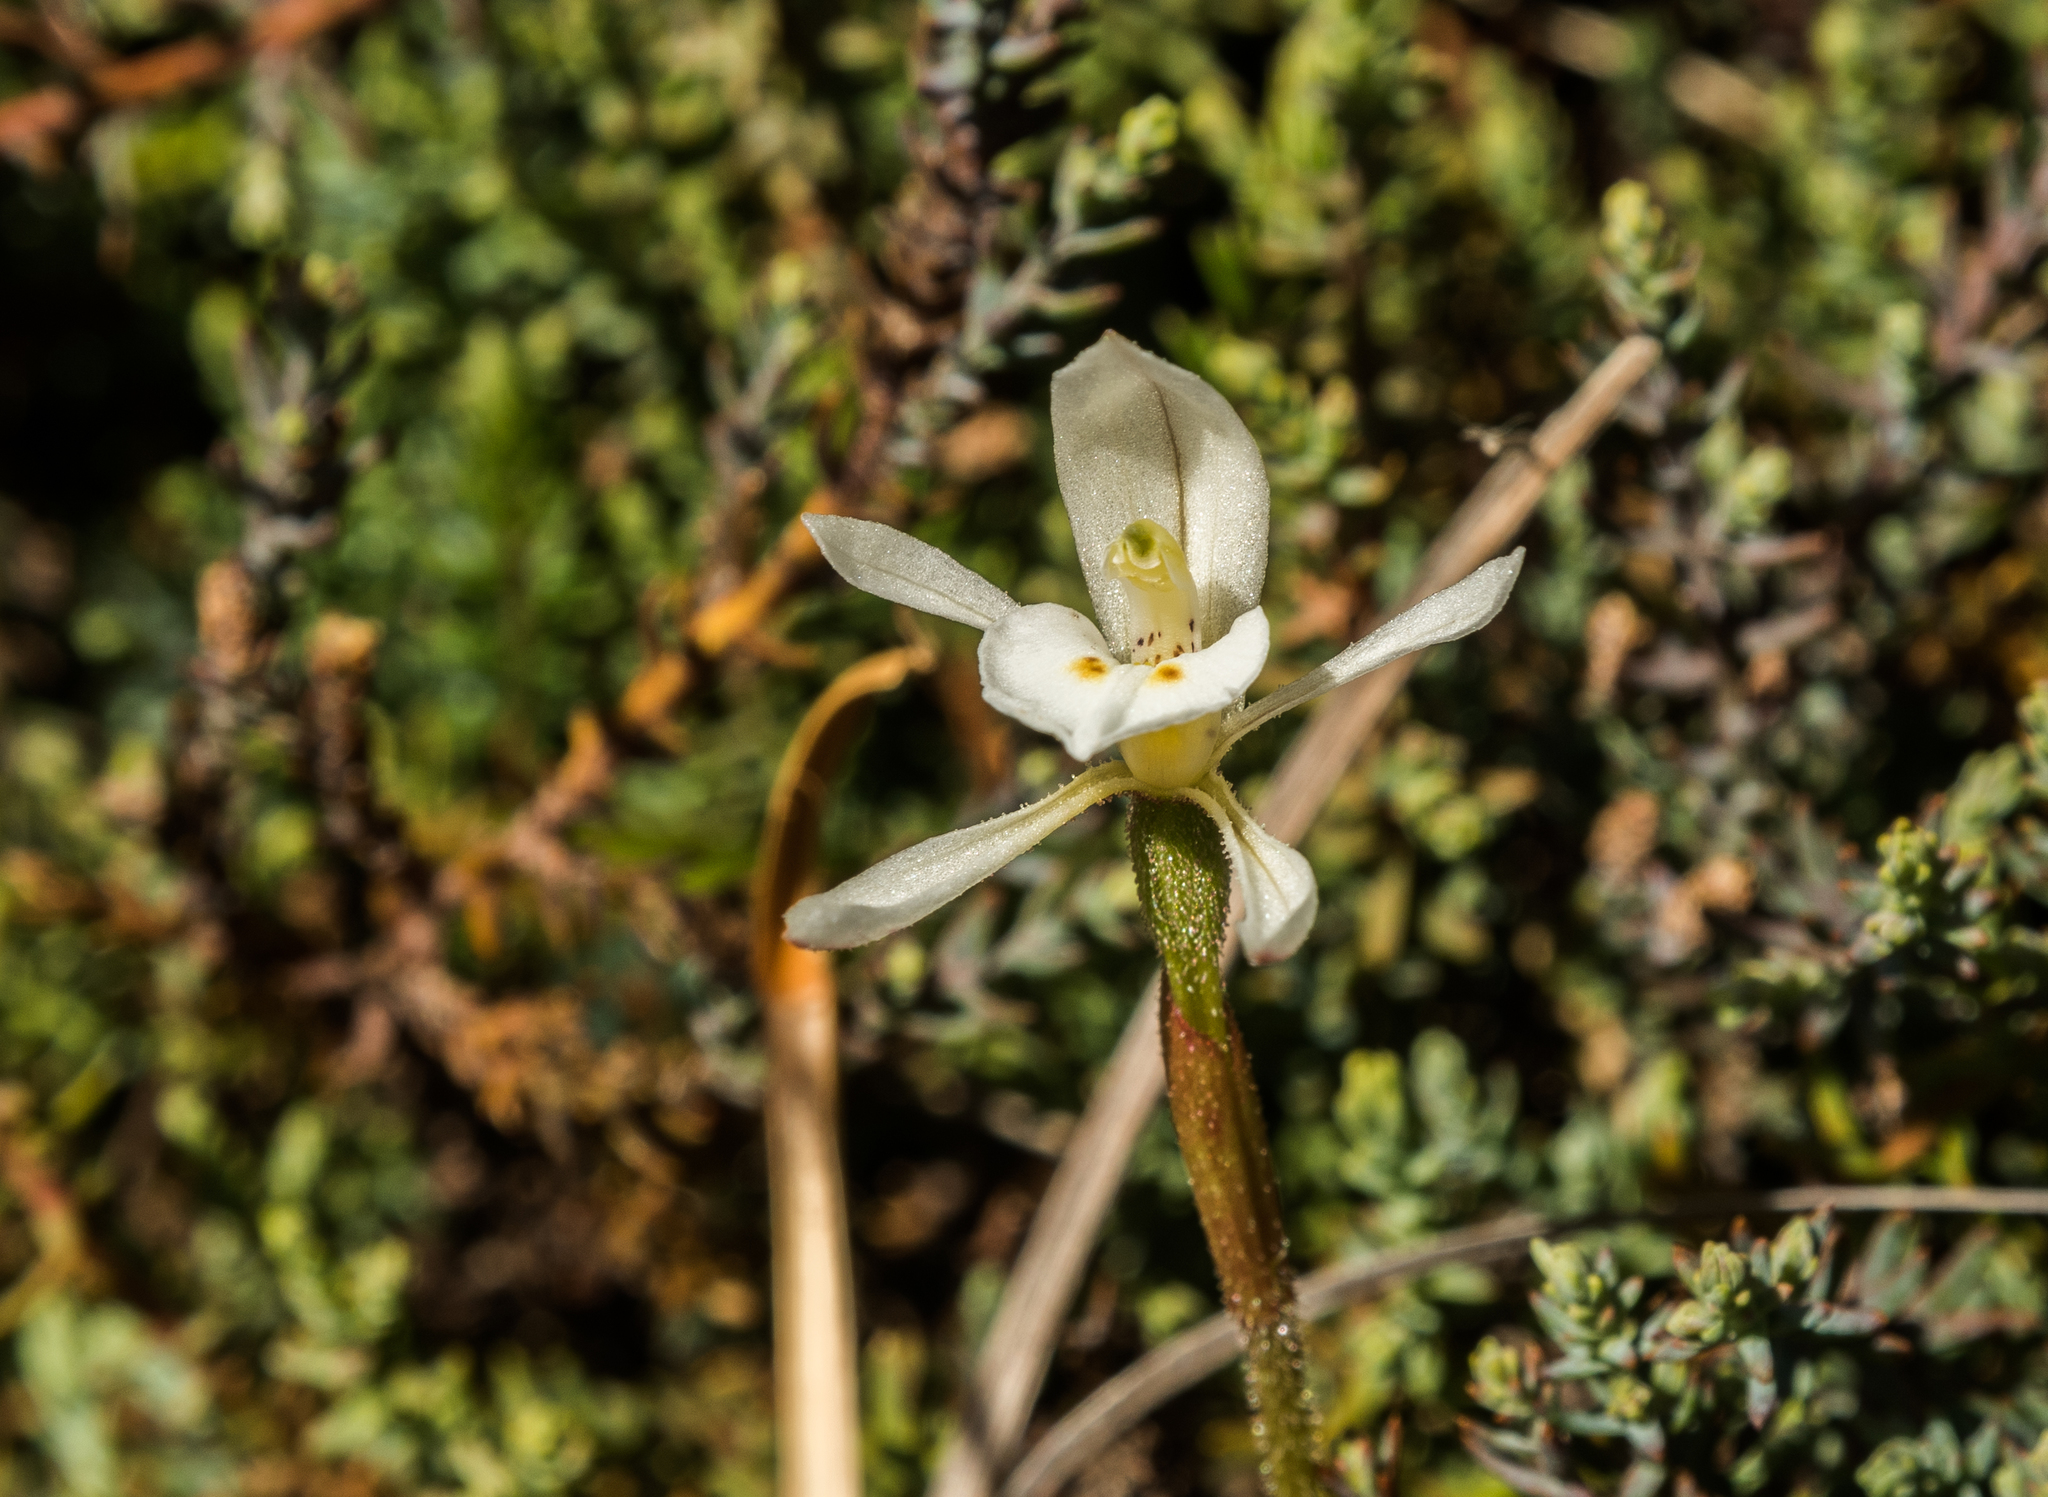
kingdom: Plantae
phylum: Tracheophyta
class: Liliopsida
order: Asparagales
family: Orchidaceae
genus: Aporostylis
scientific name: Aporostylis bifolia
